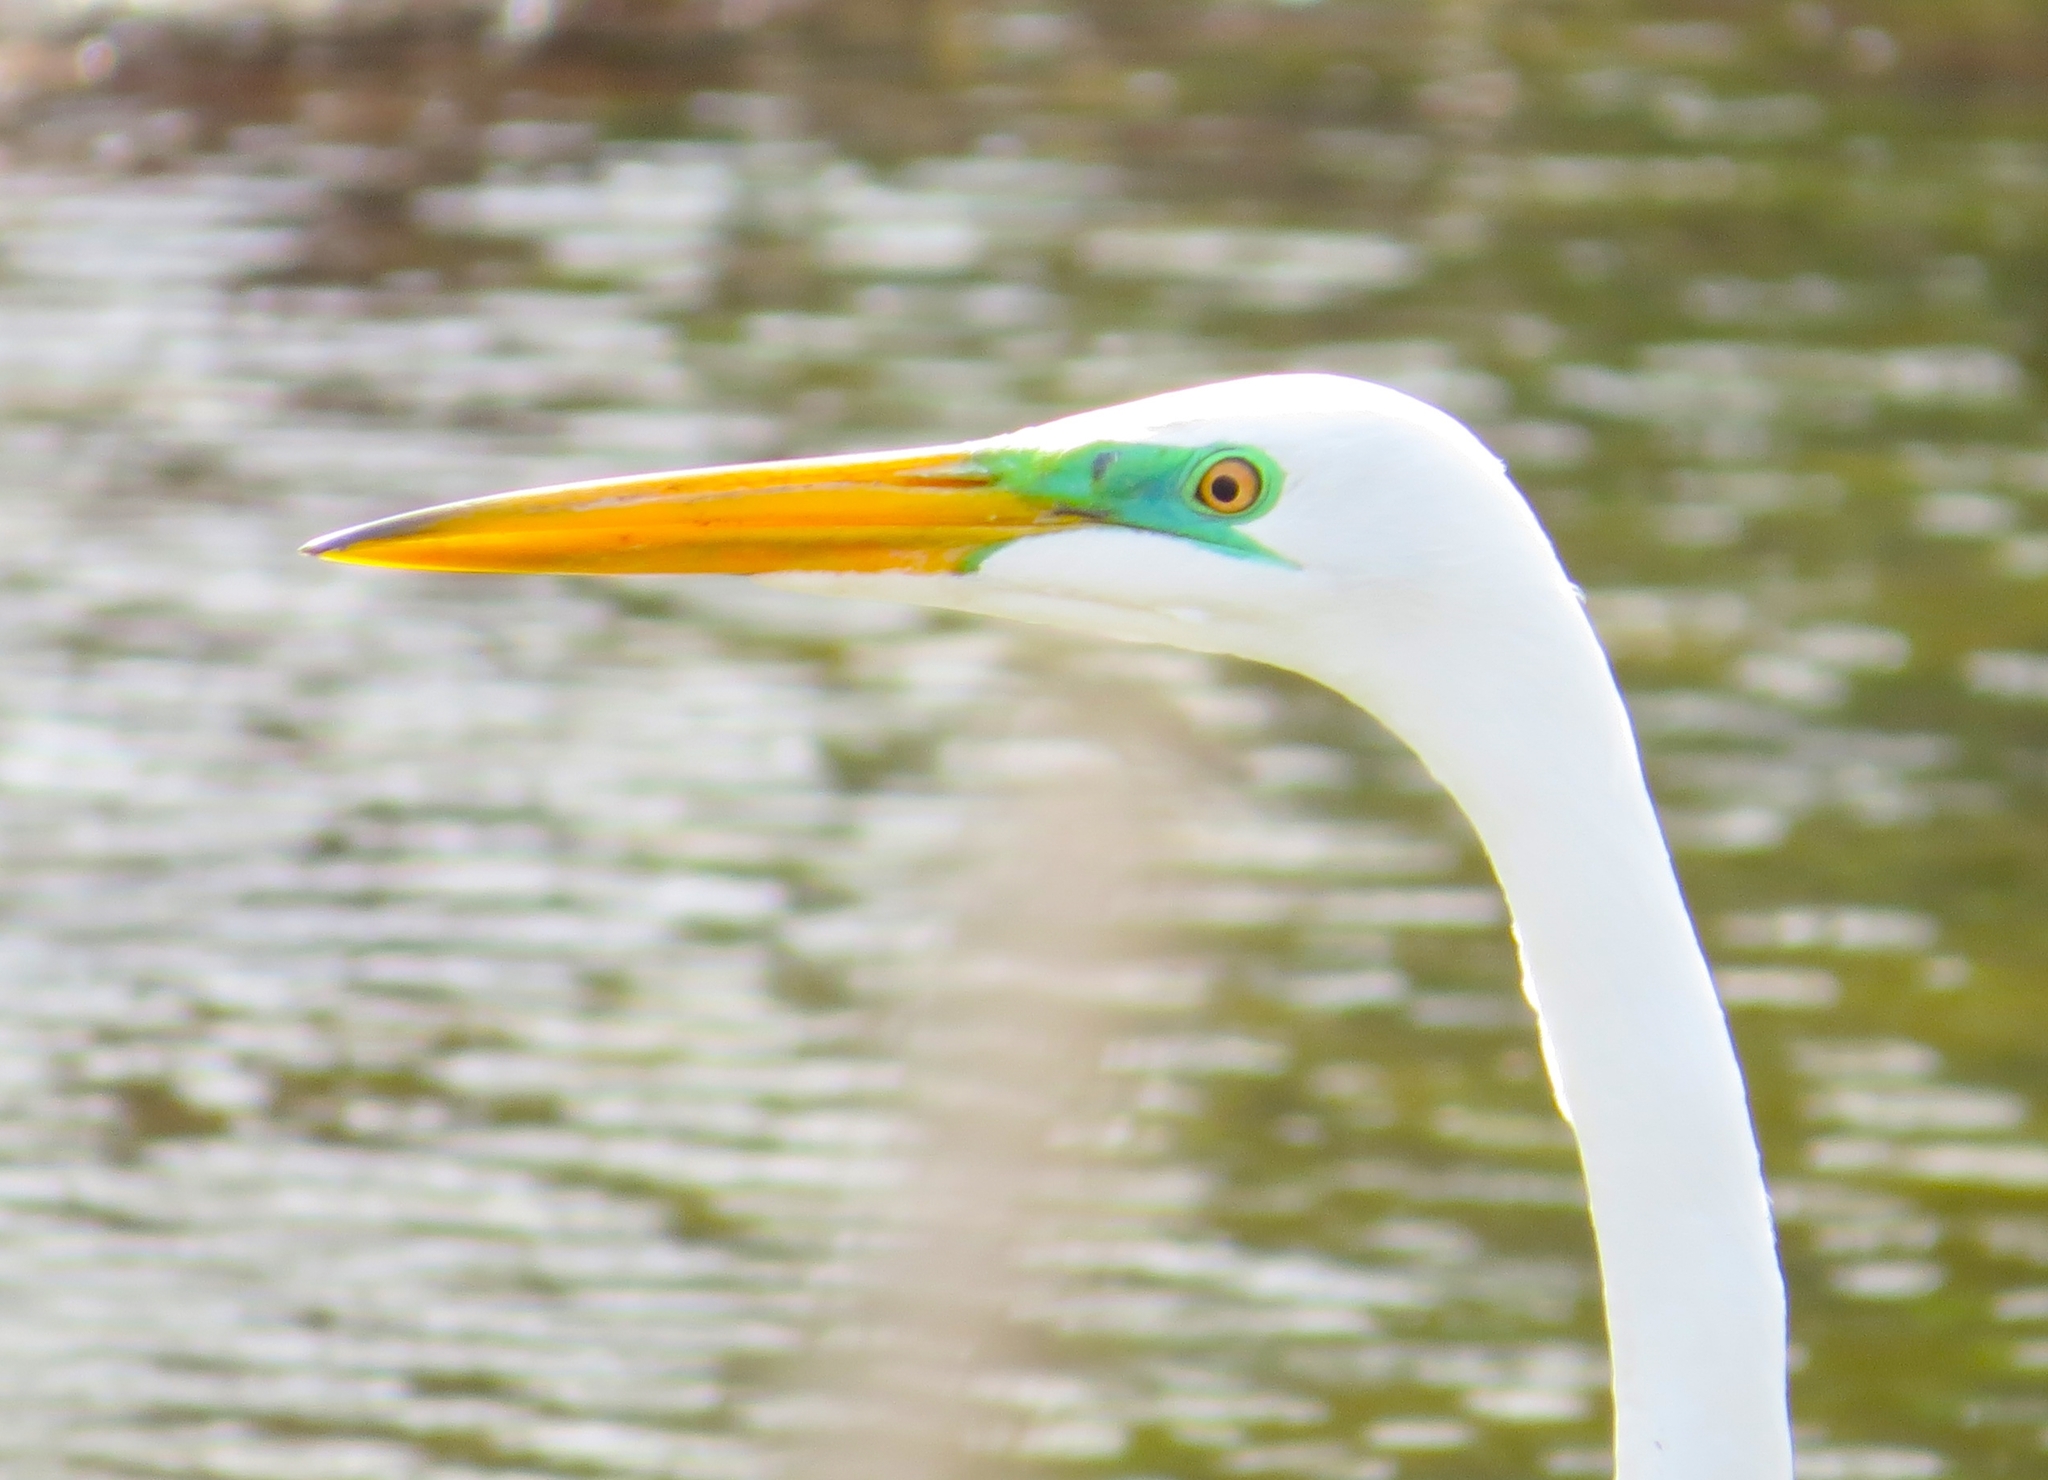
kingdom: Animalia
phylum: Chordata
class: Aves
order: Pelecaniformes
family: Ardeidae
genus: Ardea
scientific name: Ardea alba
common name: Great egret
